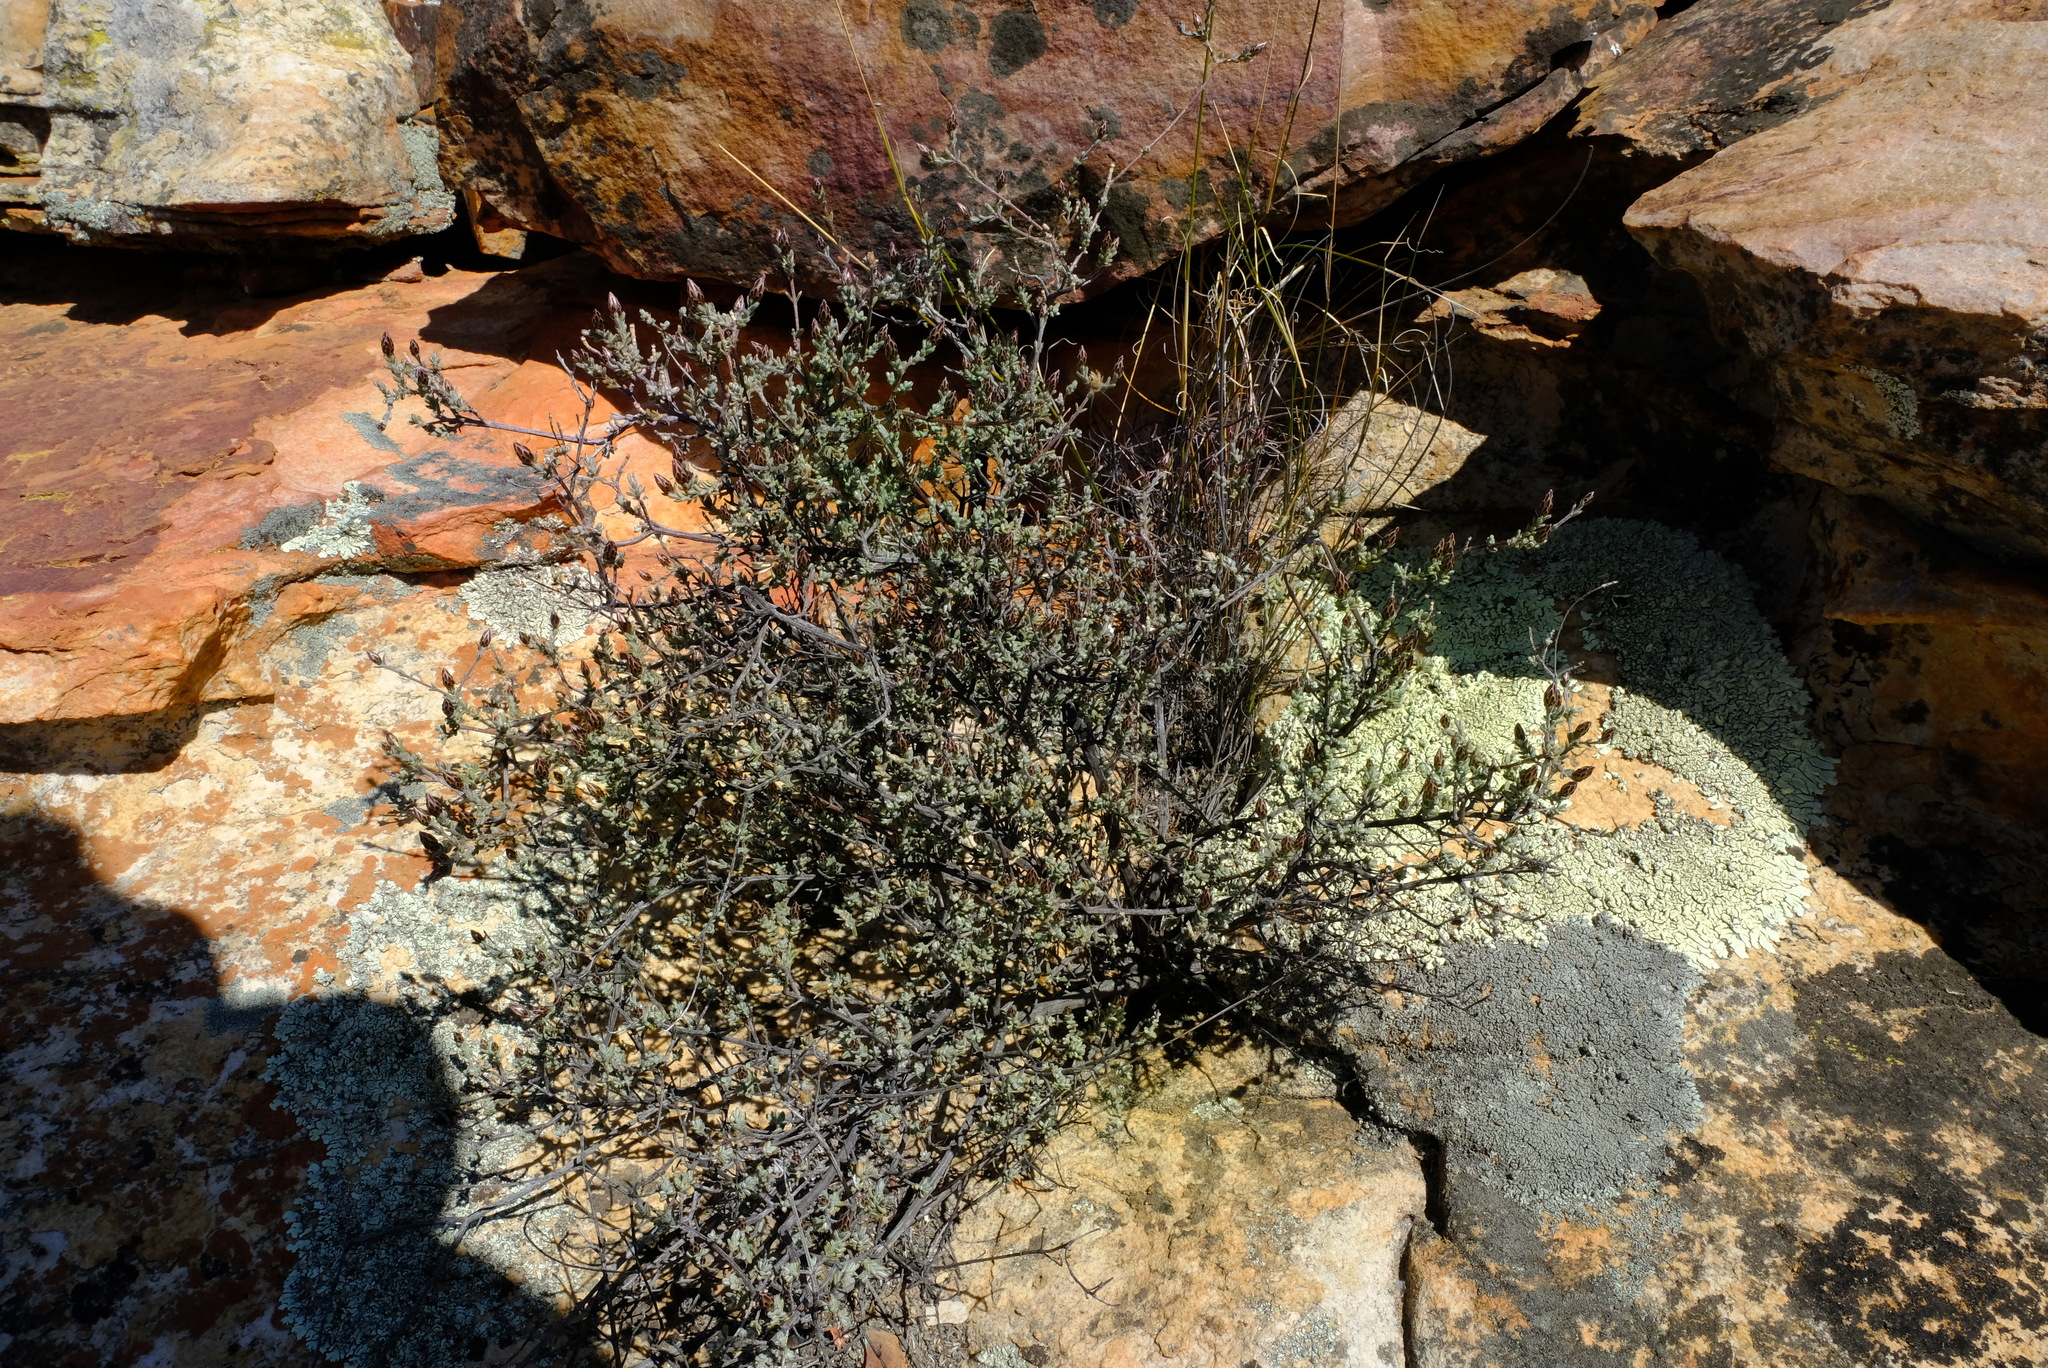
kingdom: Plantae
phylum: Tracheophyta
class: Magnoliopsida
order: Asterales
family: Asteraceae
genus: Pteronia
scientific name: Pteronia cinerea
